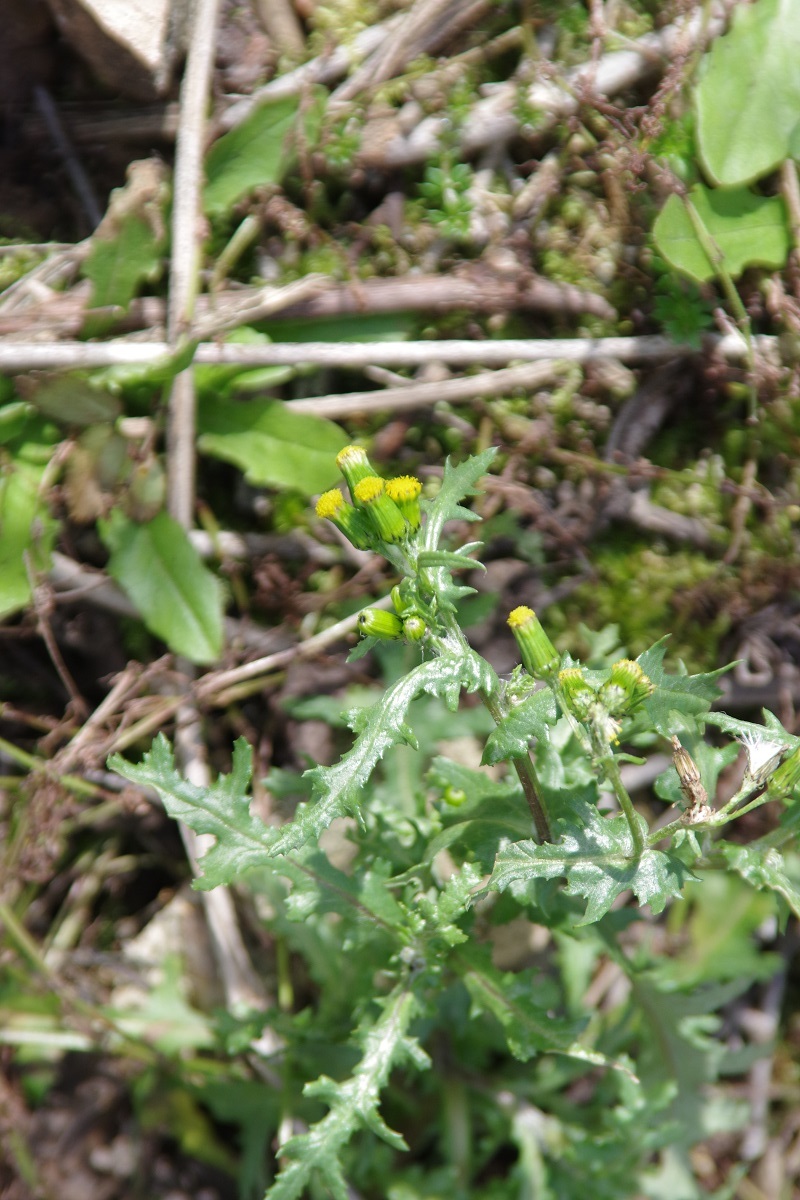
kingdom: Plantae
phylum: Tracheophyta
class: Magnoliopsida
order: Asterales
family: Asteraceae
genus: Senecio
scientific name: Senecio vulgaris
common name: Old-man-in-the-spring
